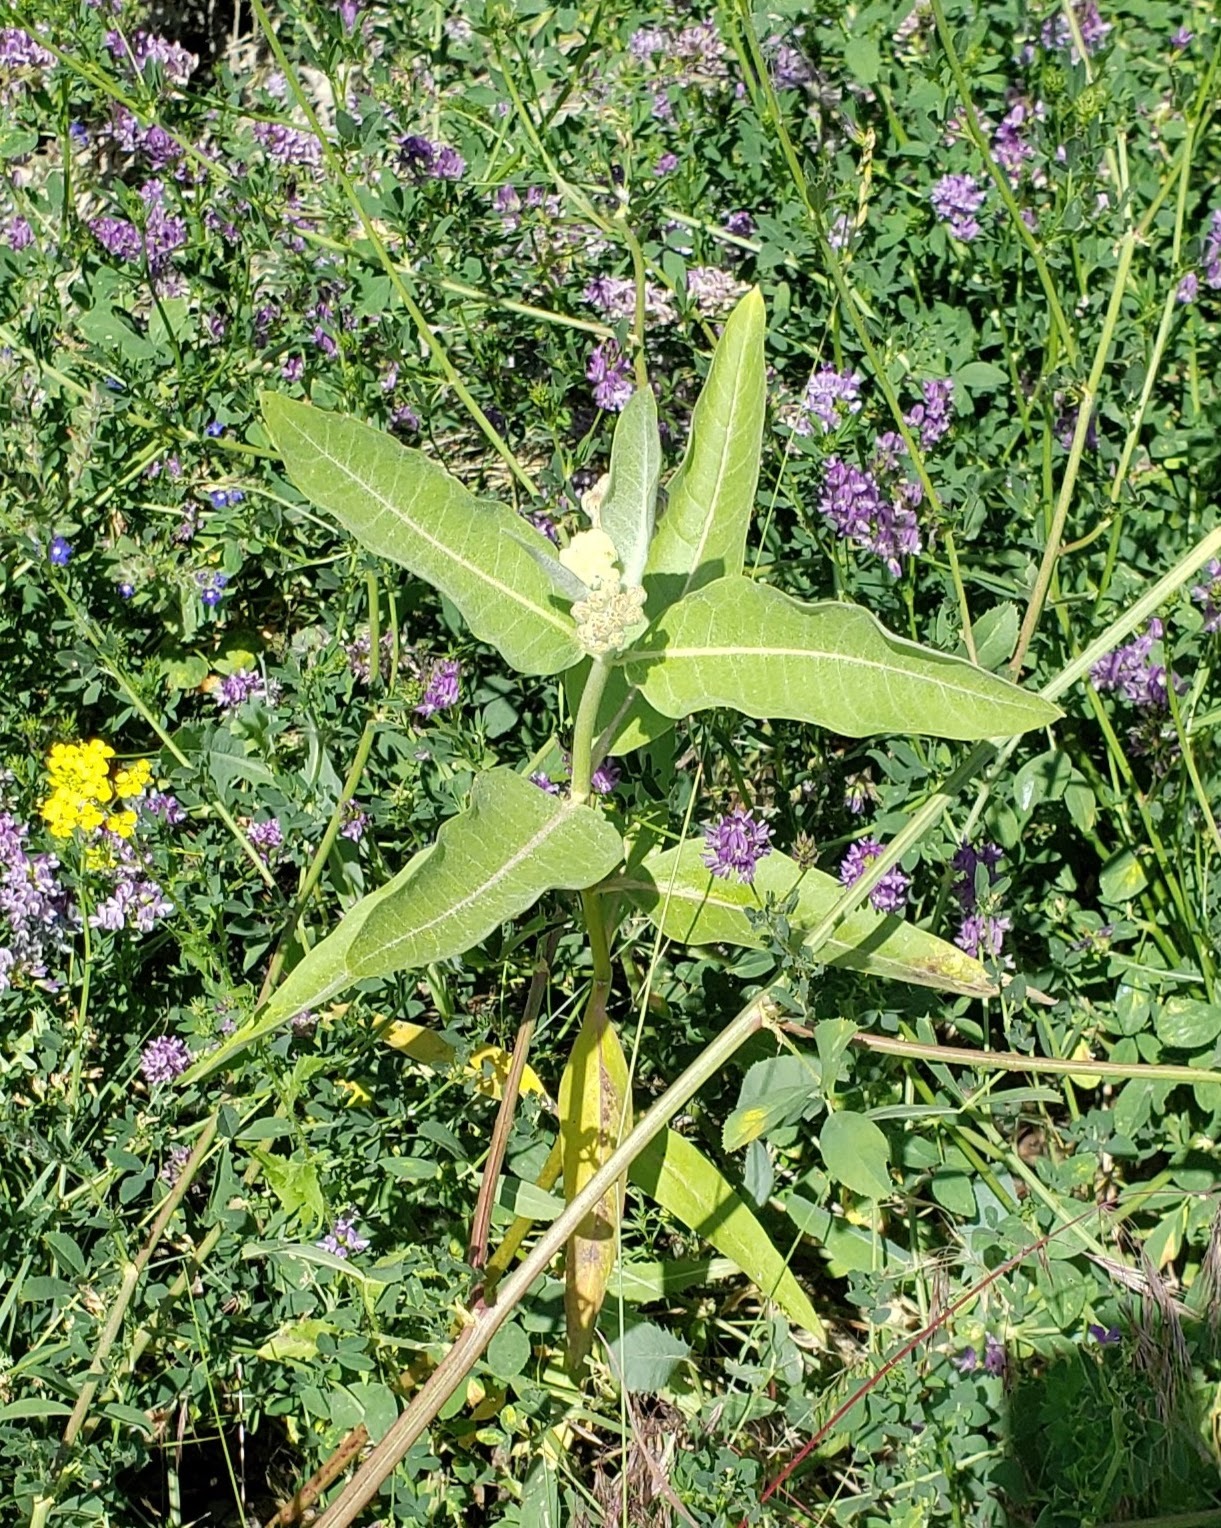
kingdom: Plantae
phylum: Tracheophyta
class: Magnoliopsida
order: Gentianales
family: Apocynaceae
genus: Asclepias
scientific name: Asclepias speciosa
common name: Showy milkweed
